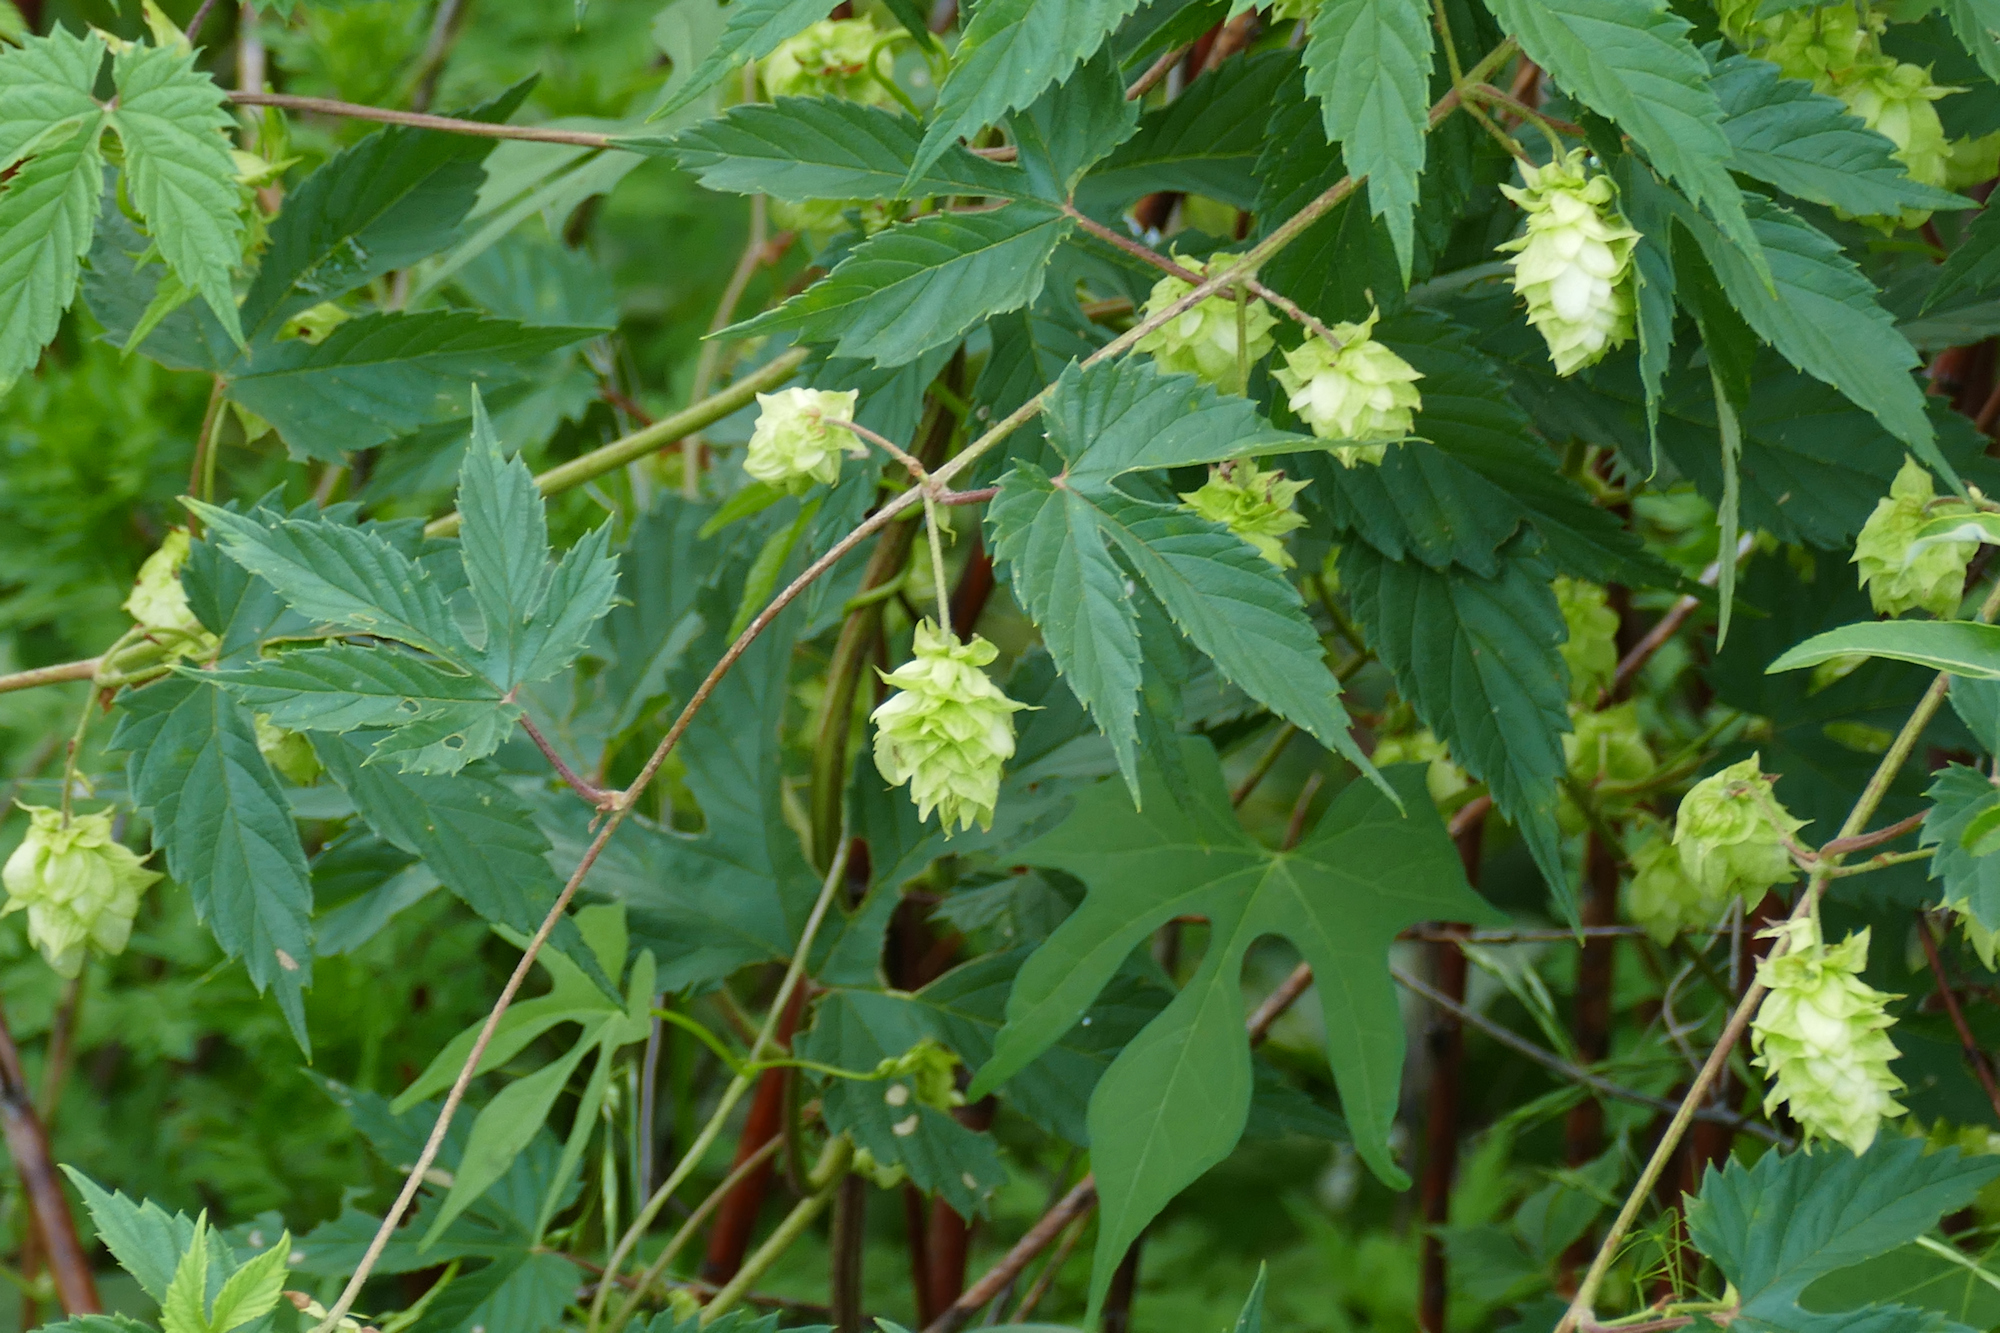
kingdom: Plantae
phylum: Tracheophyta
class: Magnoliopsida
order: Rosales
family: Cannabaceae
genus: Humulus
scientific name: Humulus lupulus
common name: Hop
